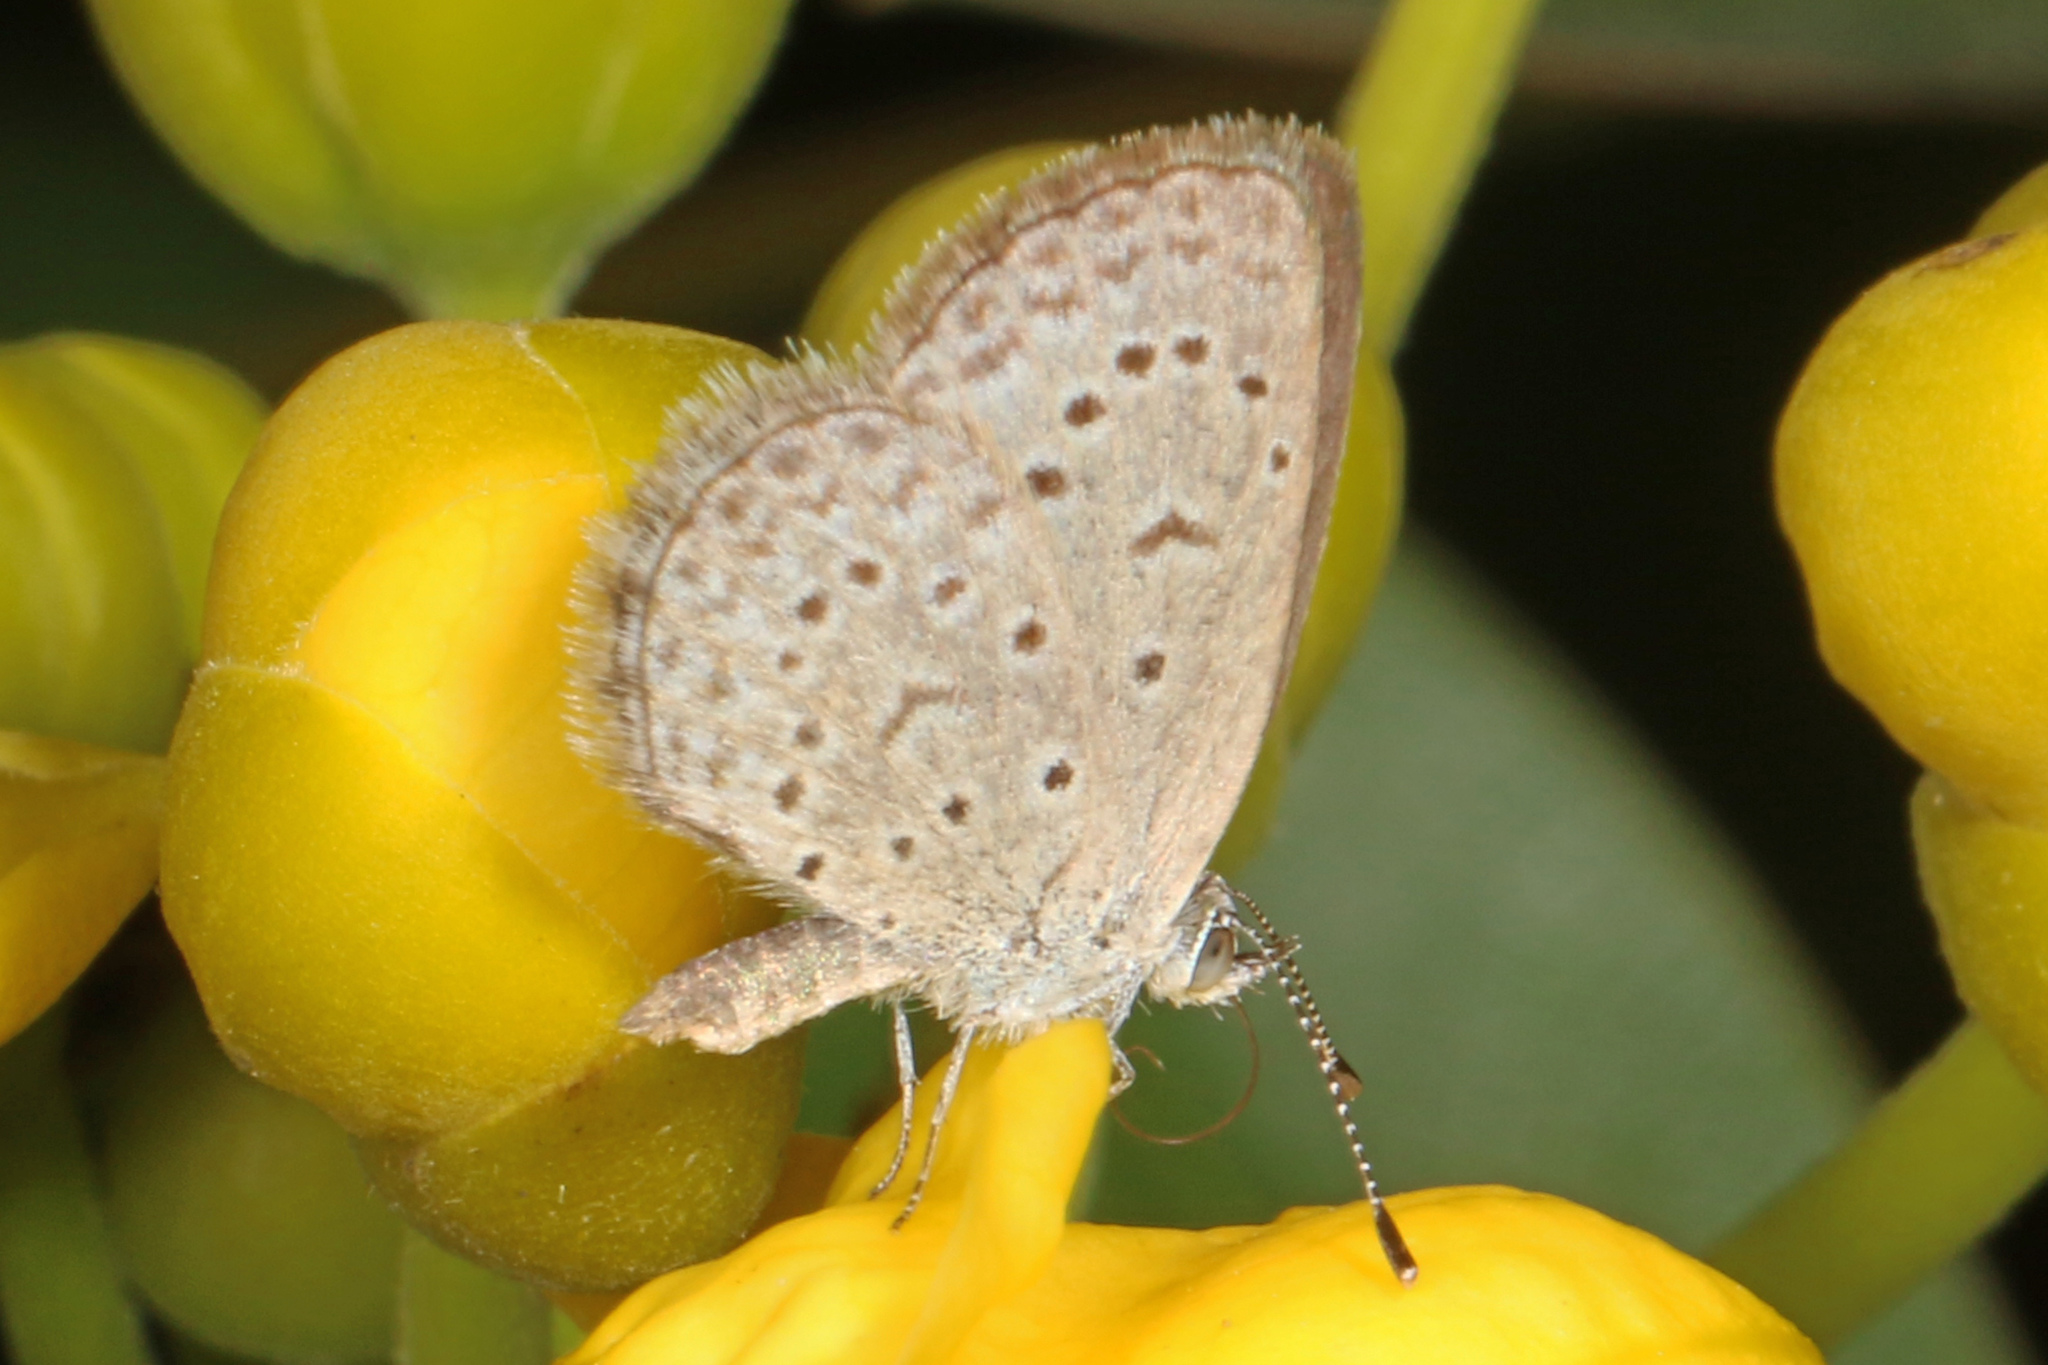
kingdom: Animalia
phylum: Arthropoda
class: Insecta
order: Lepidoptera
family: Lycaenidae
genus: Zizeeria
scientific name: Zizeeria knysna
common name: African grass blue
